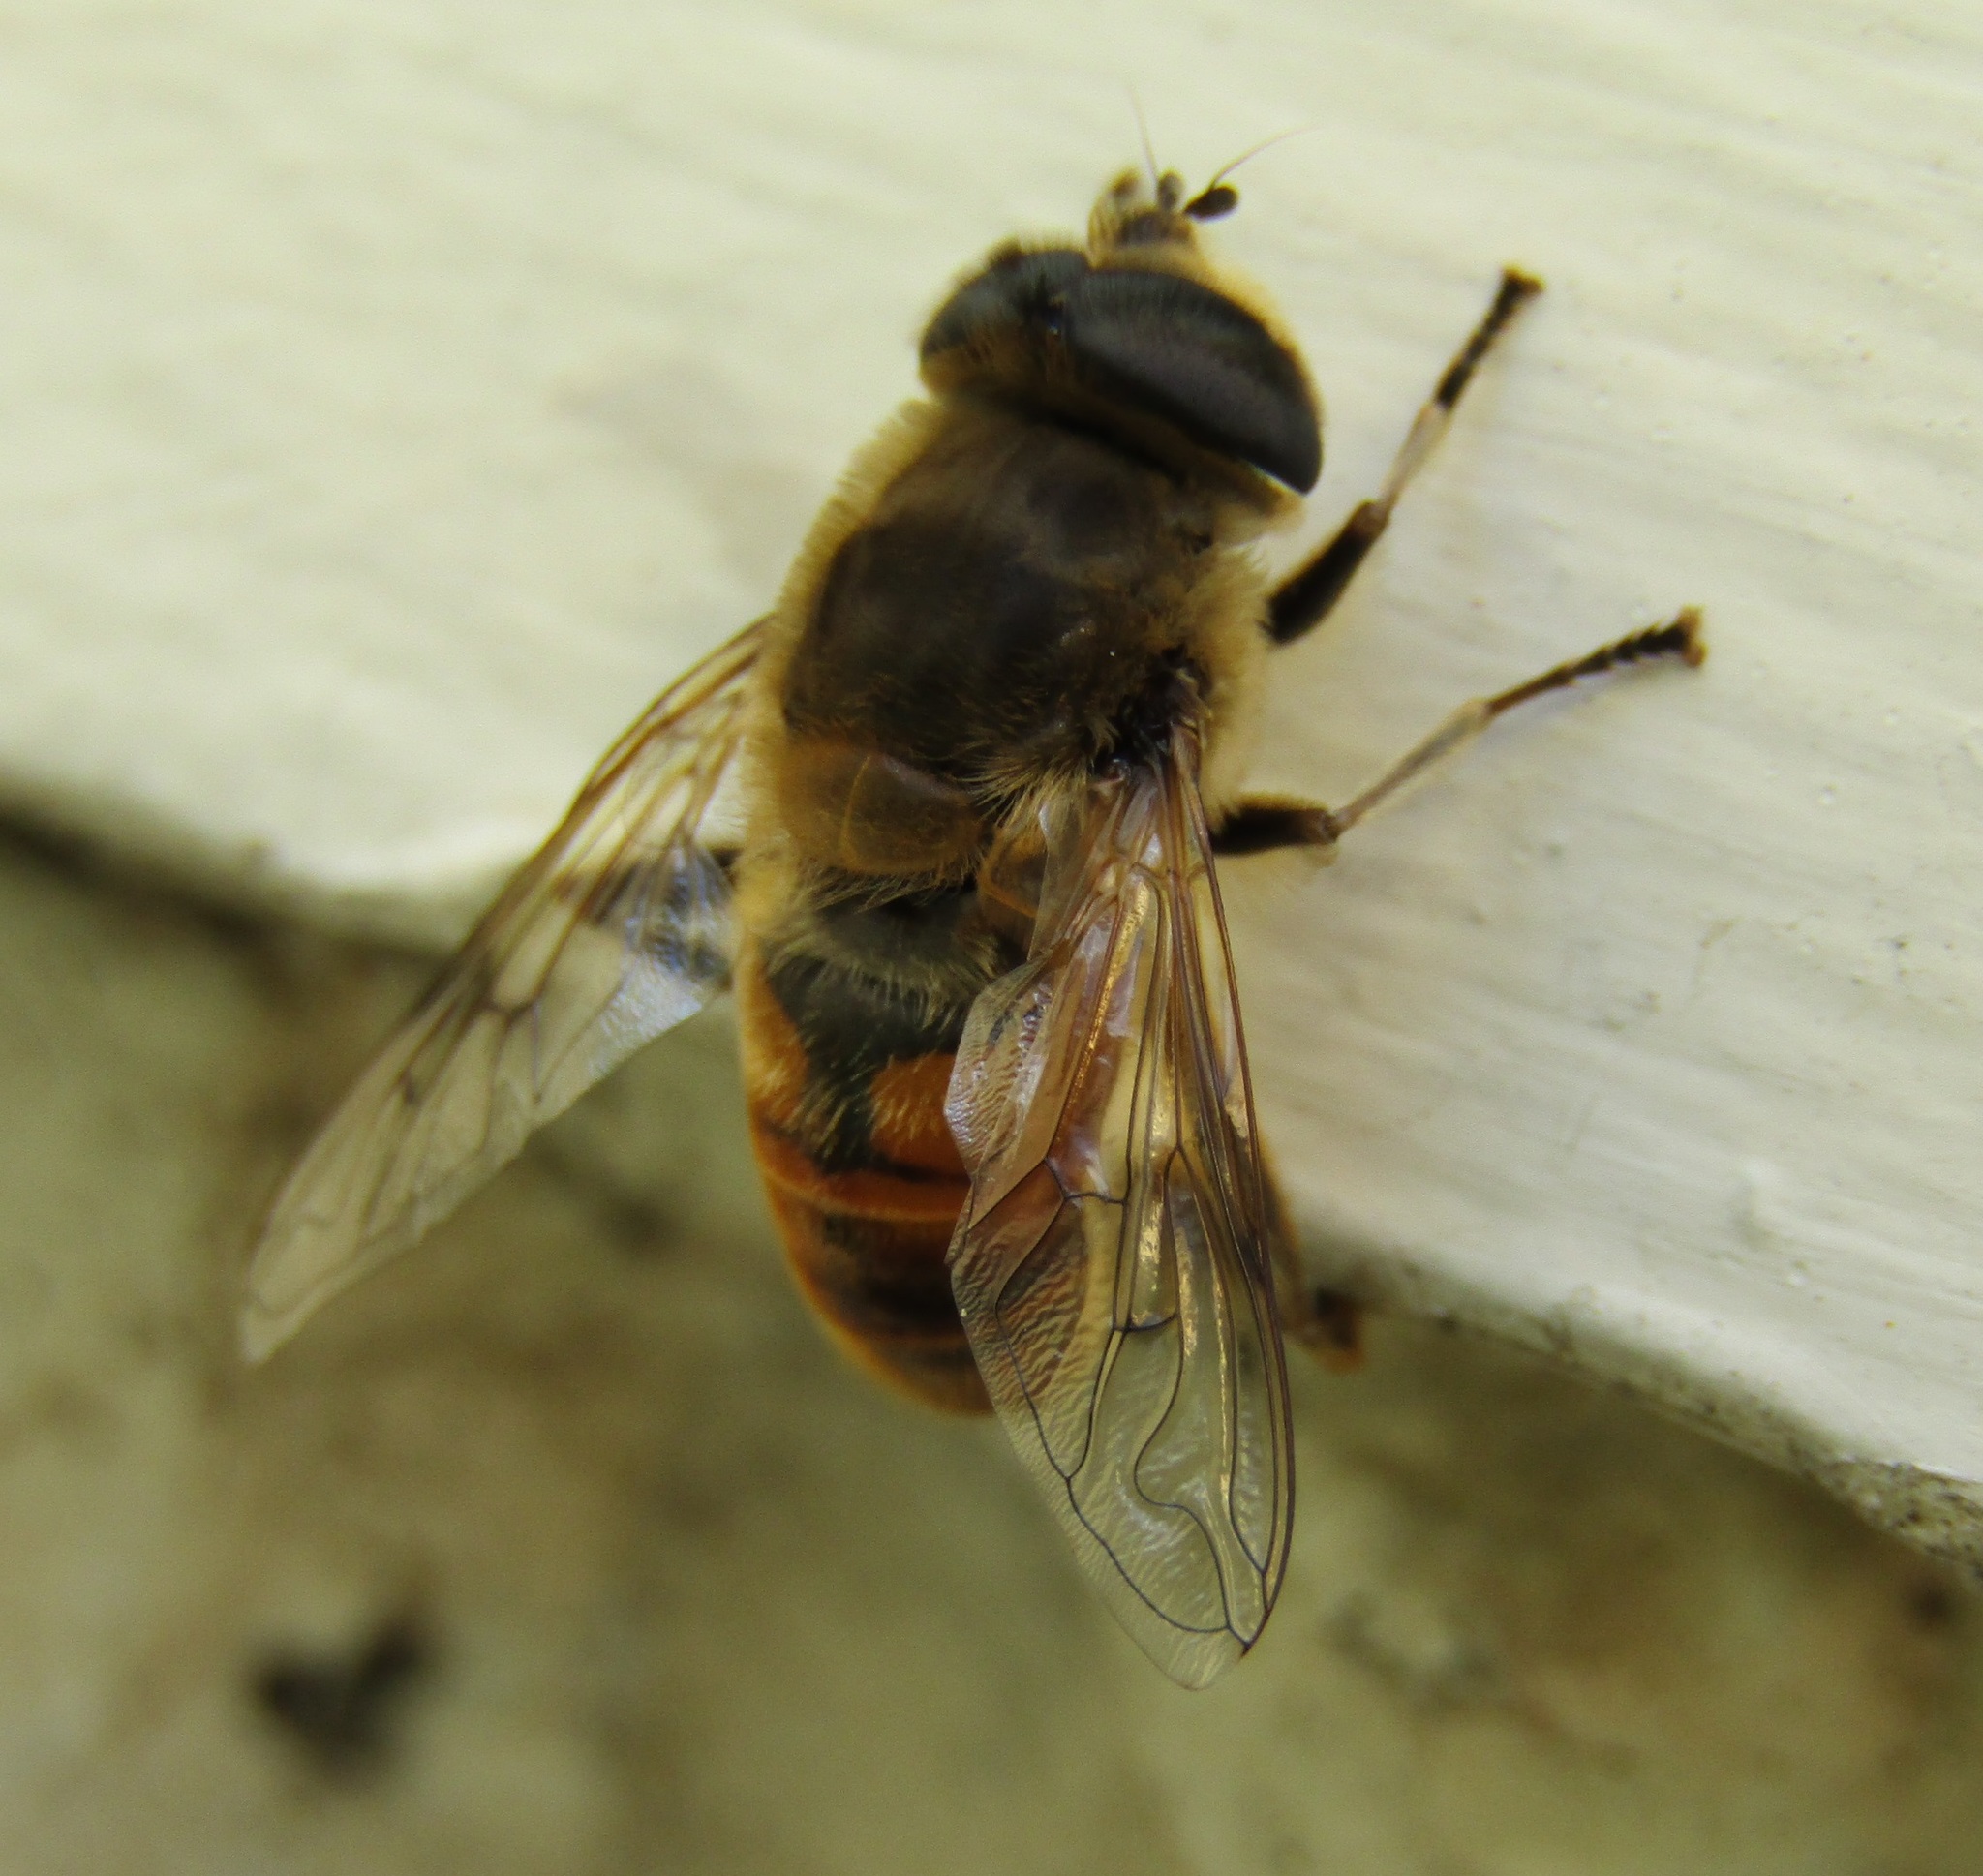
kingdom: Animalia
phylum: Arthropoda
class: Insecta
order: Diptera
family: Syrphidae
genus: Eristalis
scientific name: Eristalis tenax
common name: Drone fly
